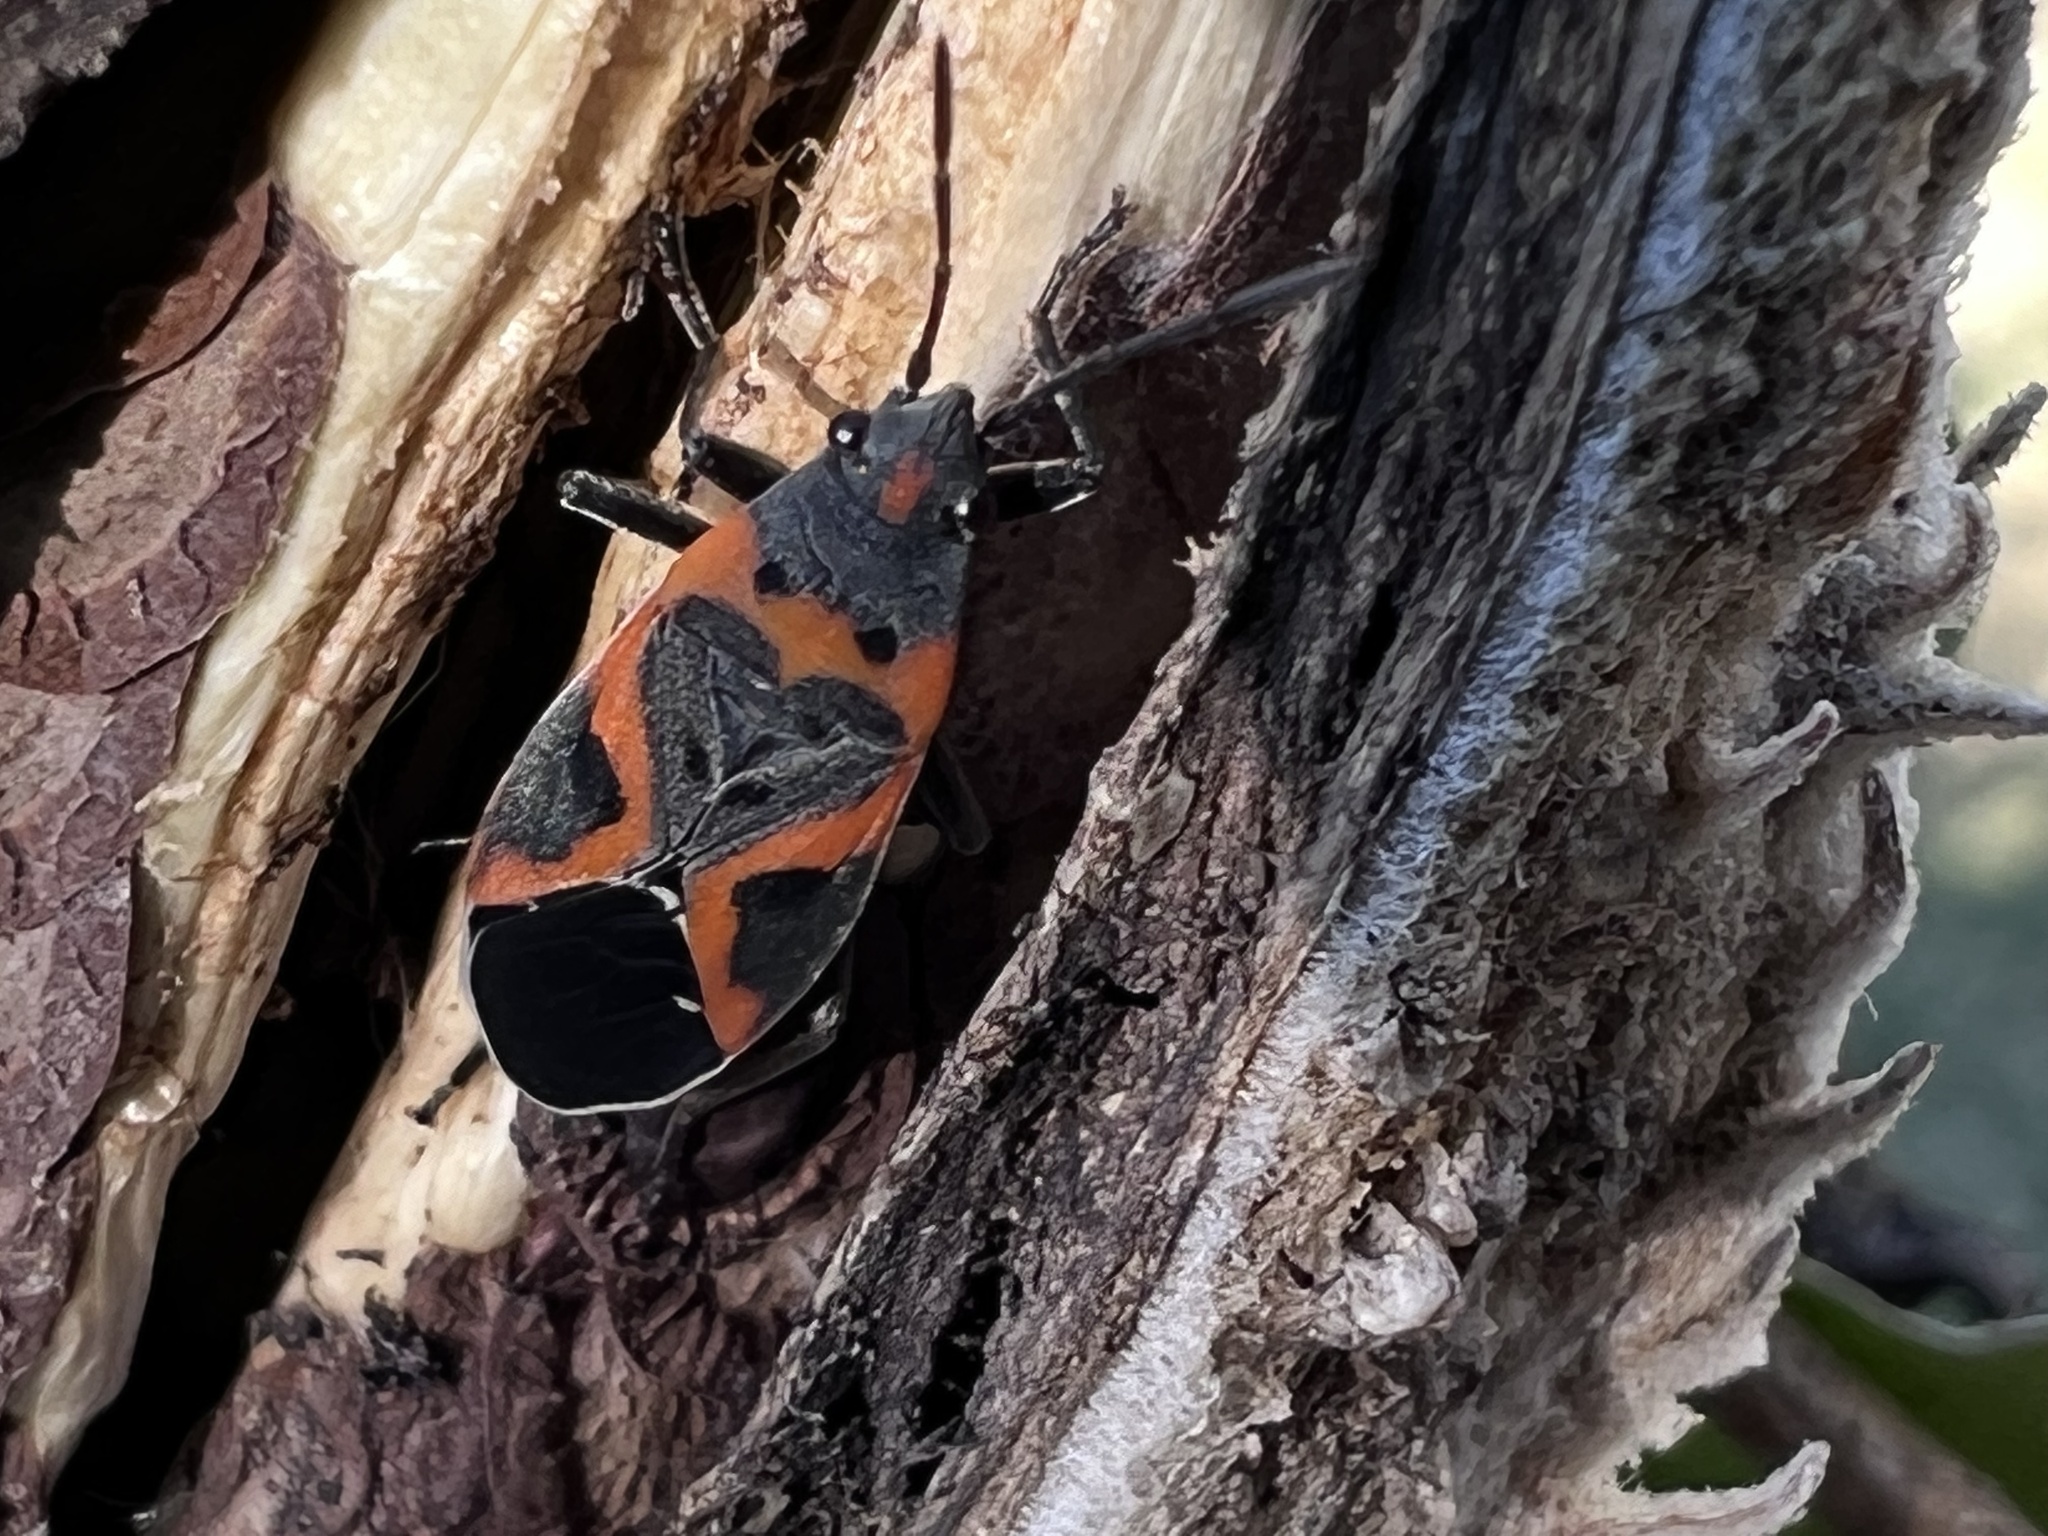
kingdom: Animalia
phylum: Arthropoda
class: Insecta
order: Hemiptera
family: Lygaeidae
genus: Lygaeus
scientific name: Lygaeus kalmii
